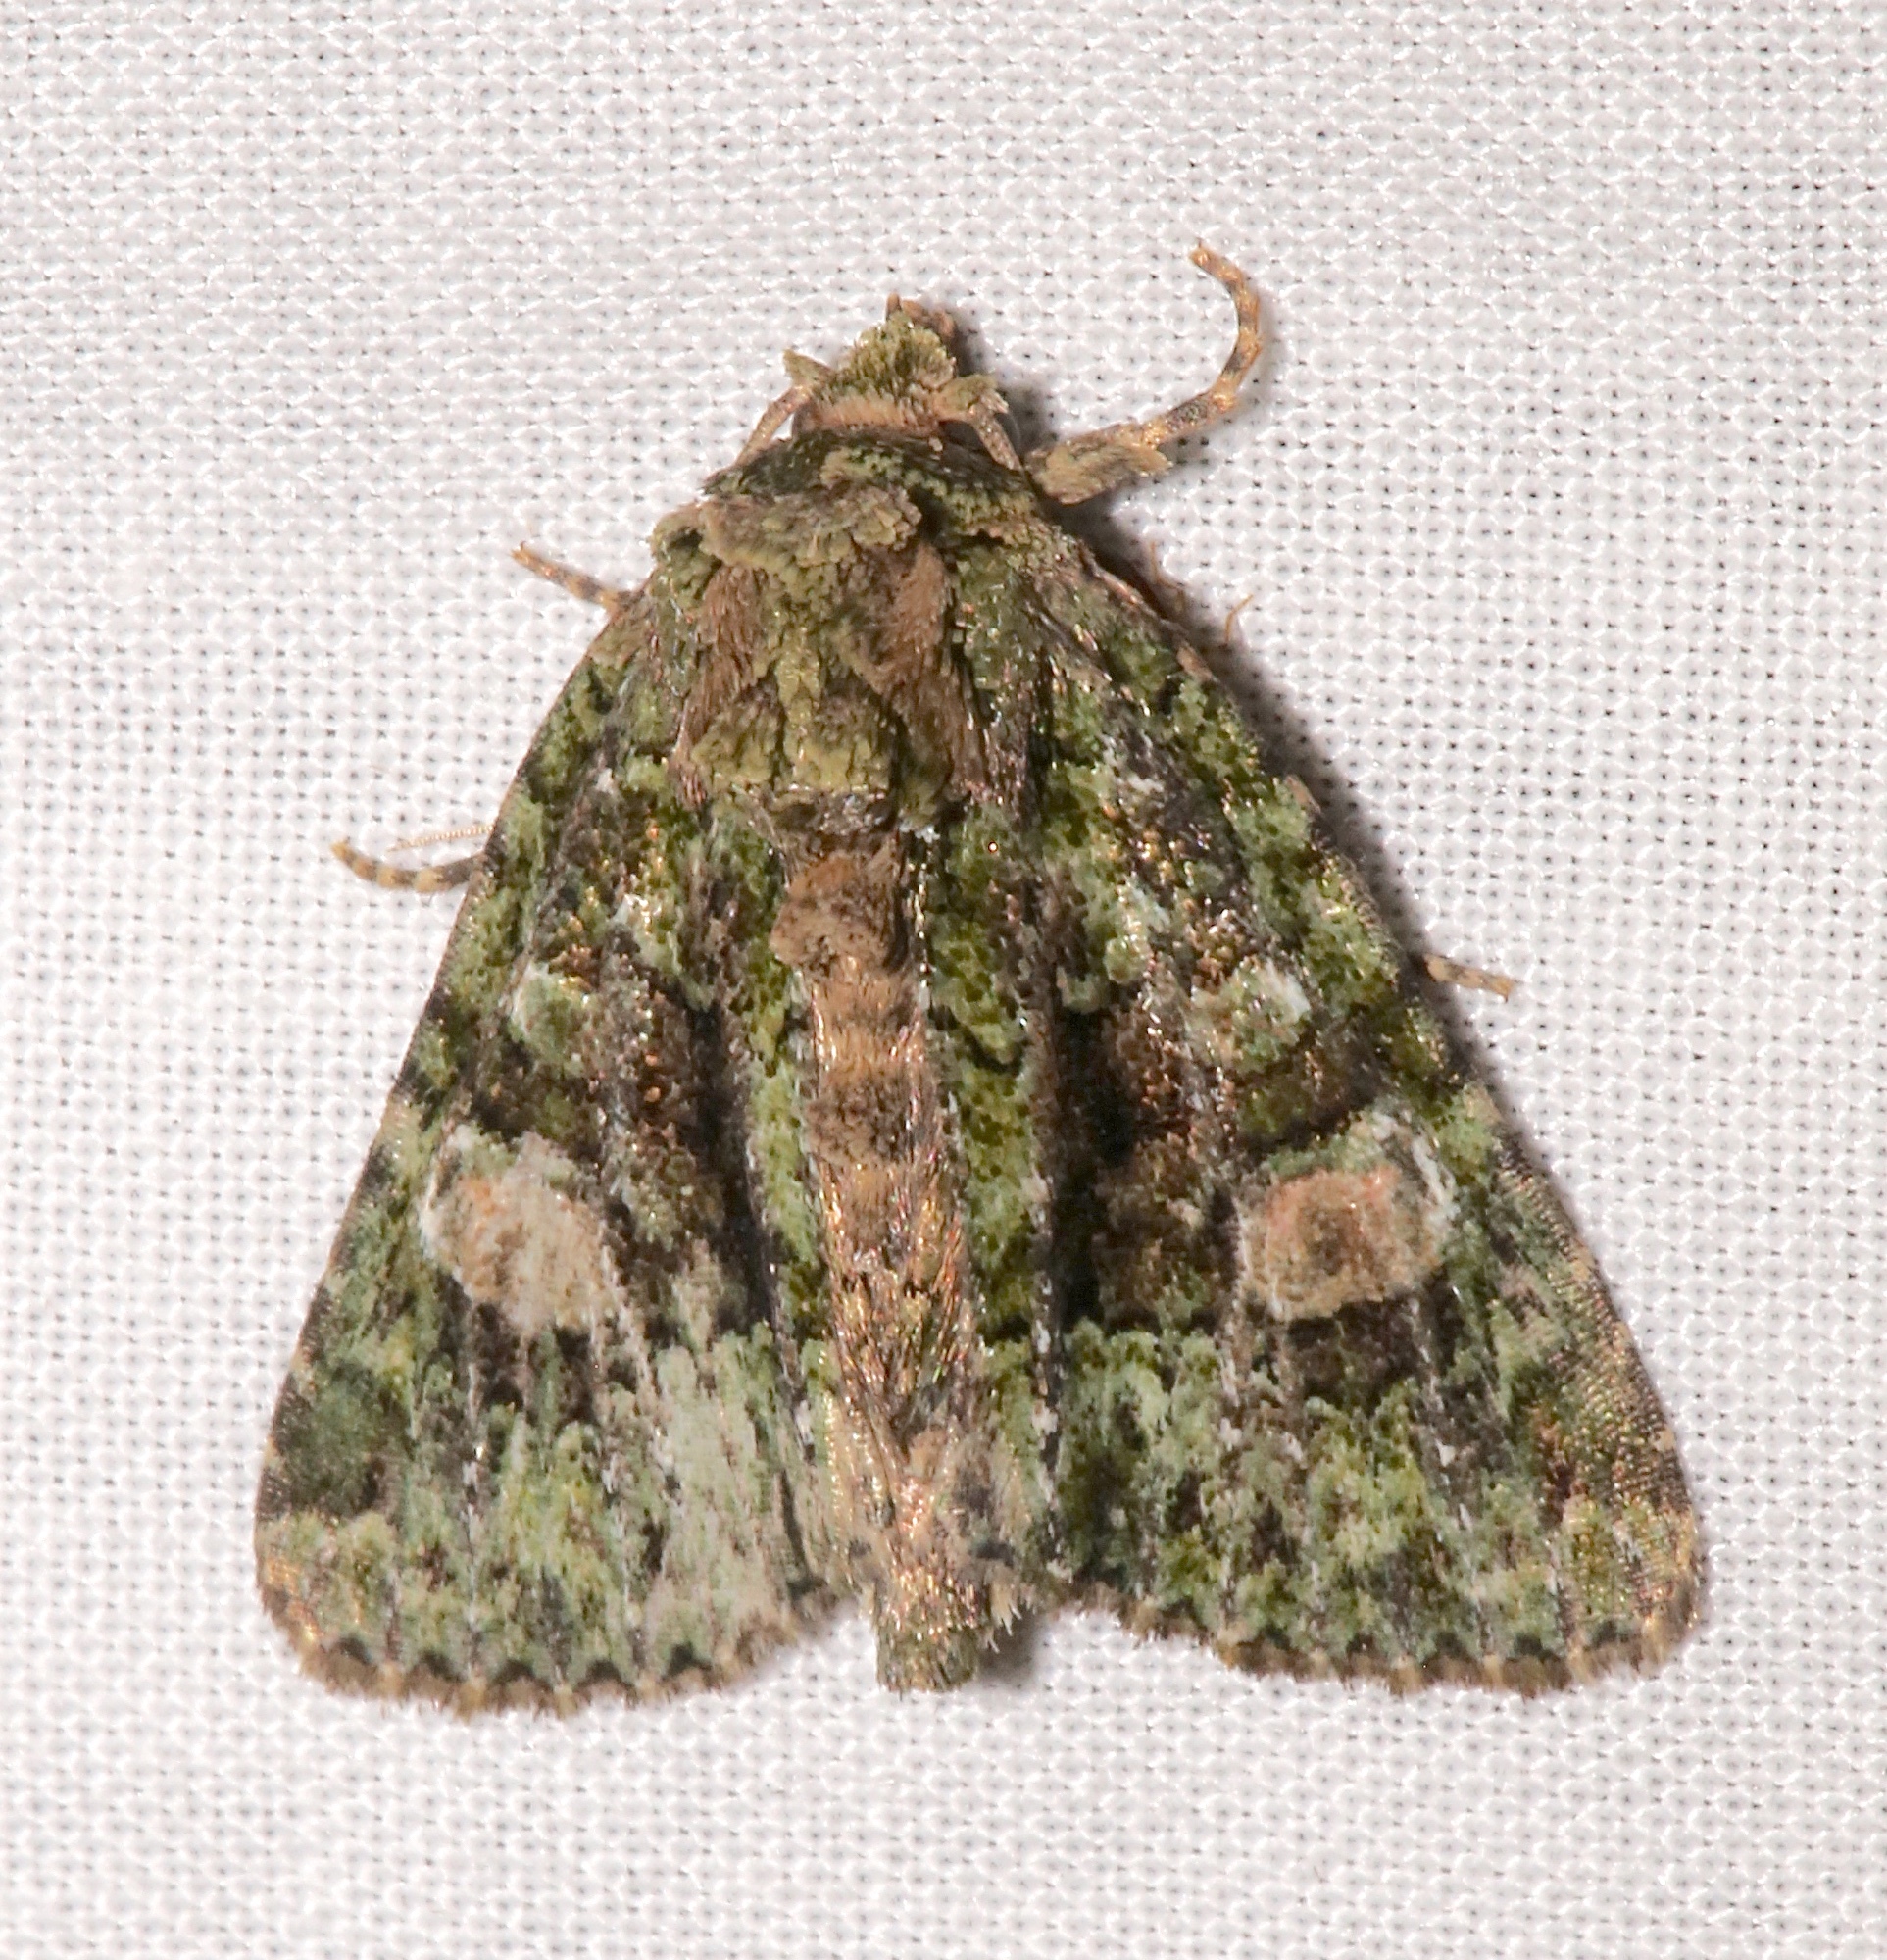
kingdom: Animalia
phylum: Arthropoda
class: Insecta
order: Lepidoptera
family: Noctuidae
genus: Phosphila
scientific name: Phosphila miselioides
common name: Spotted phosphila moth
